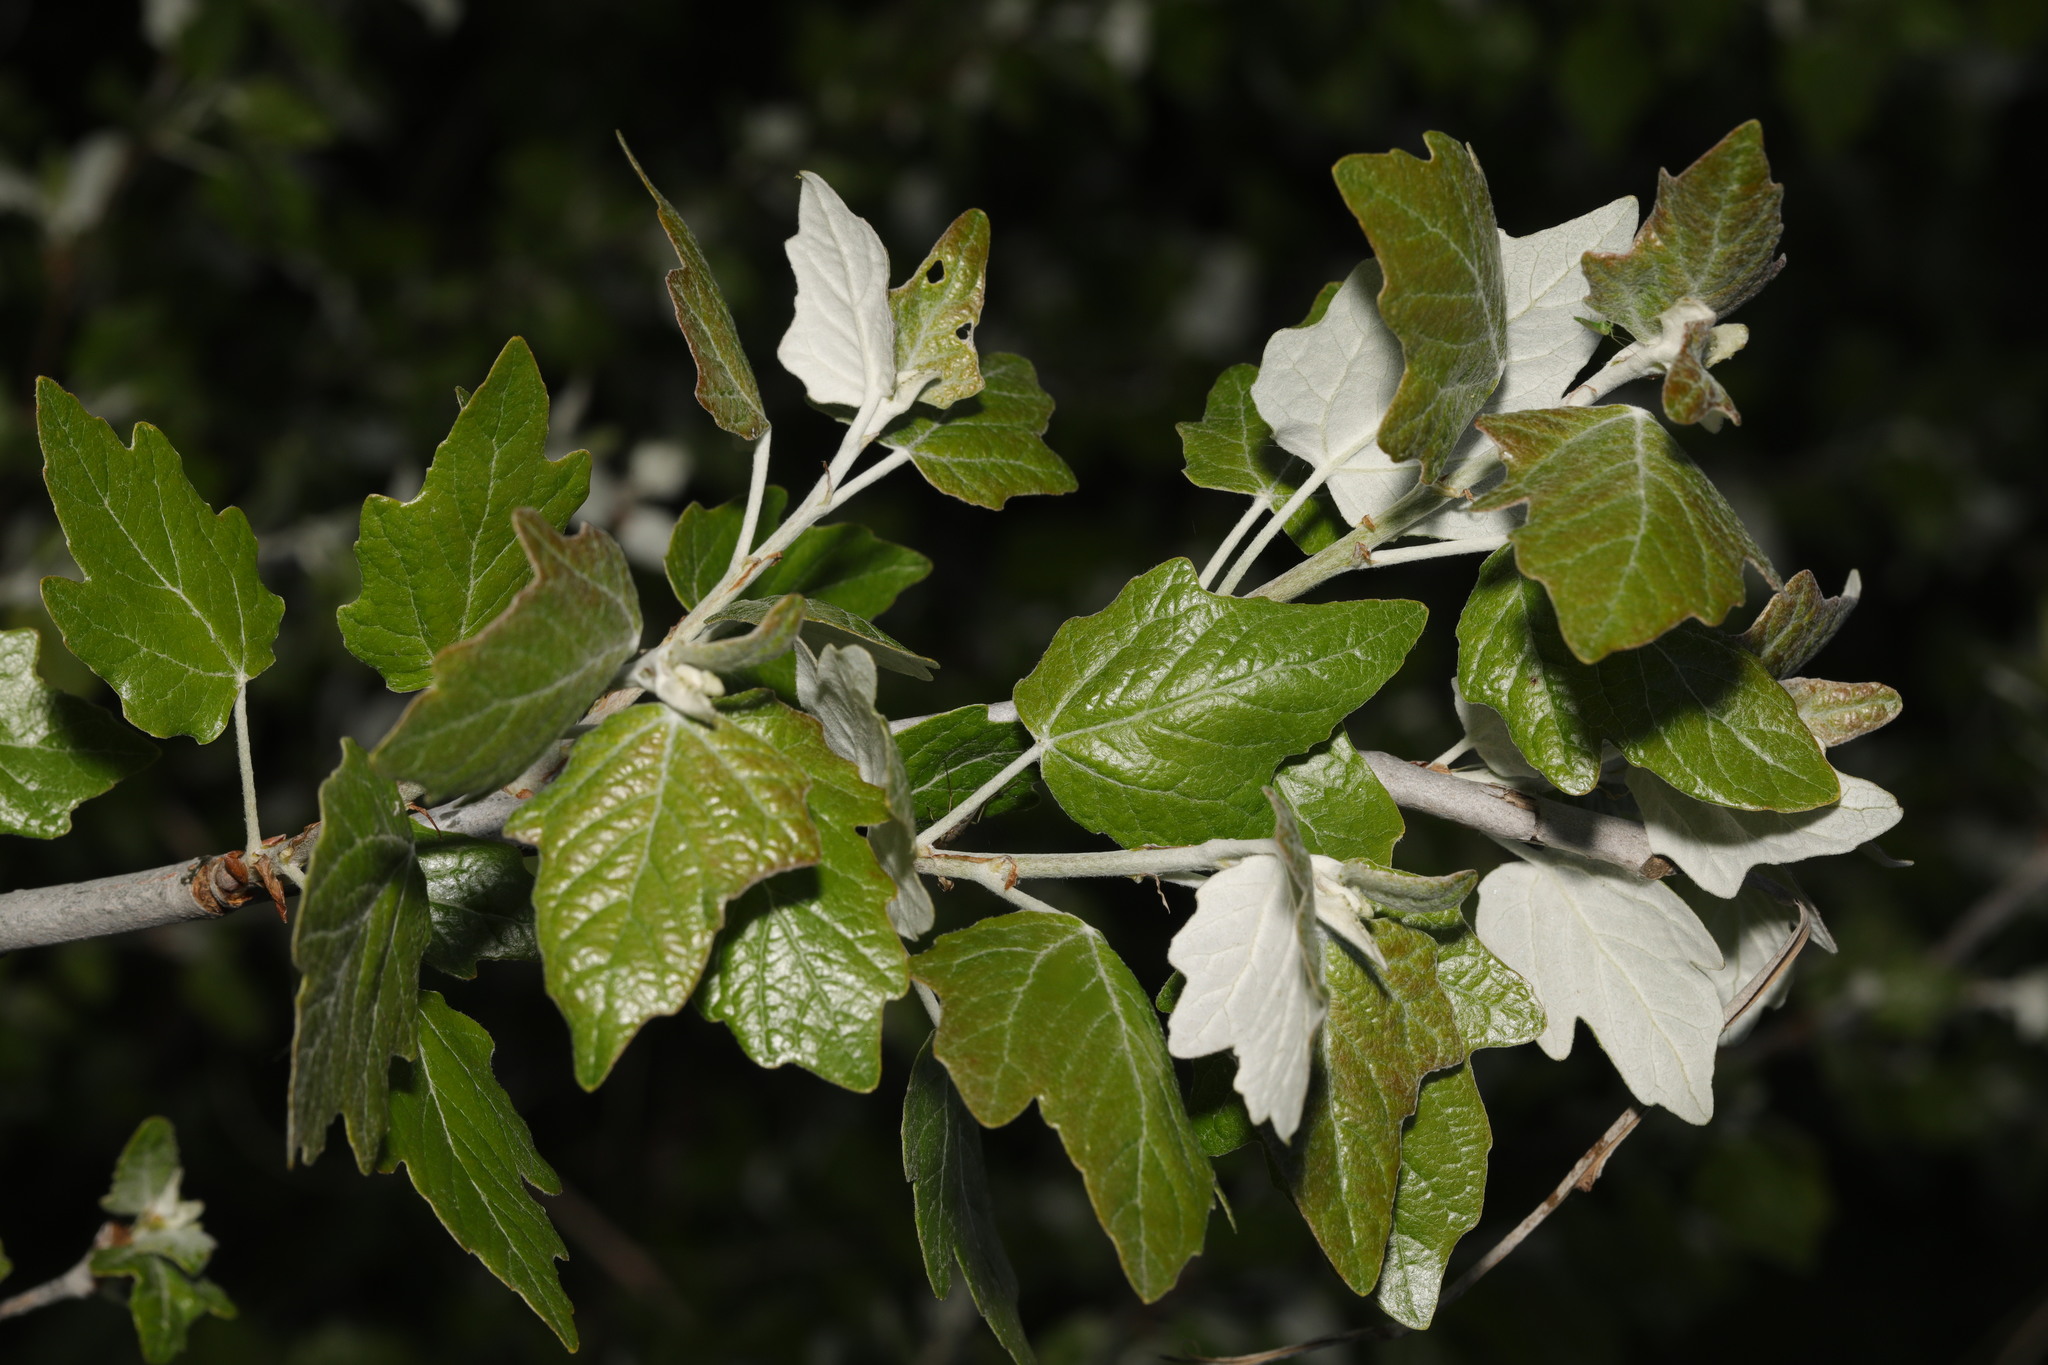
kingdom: Plantae
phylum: Tracheophyta
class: Magnoliopsida
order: Malpighiales
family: Salicaceae
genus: Populus
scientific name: Populus alba
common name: White poplar
